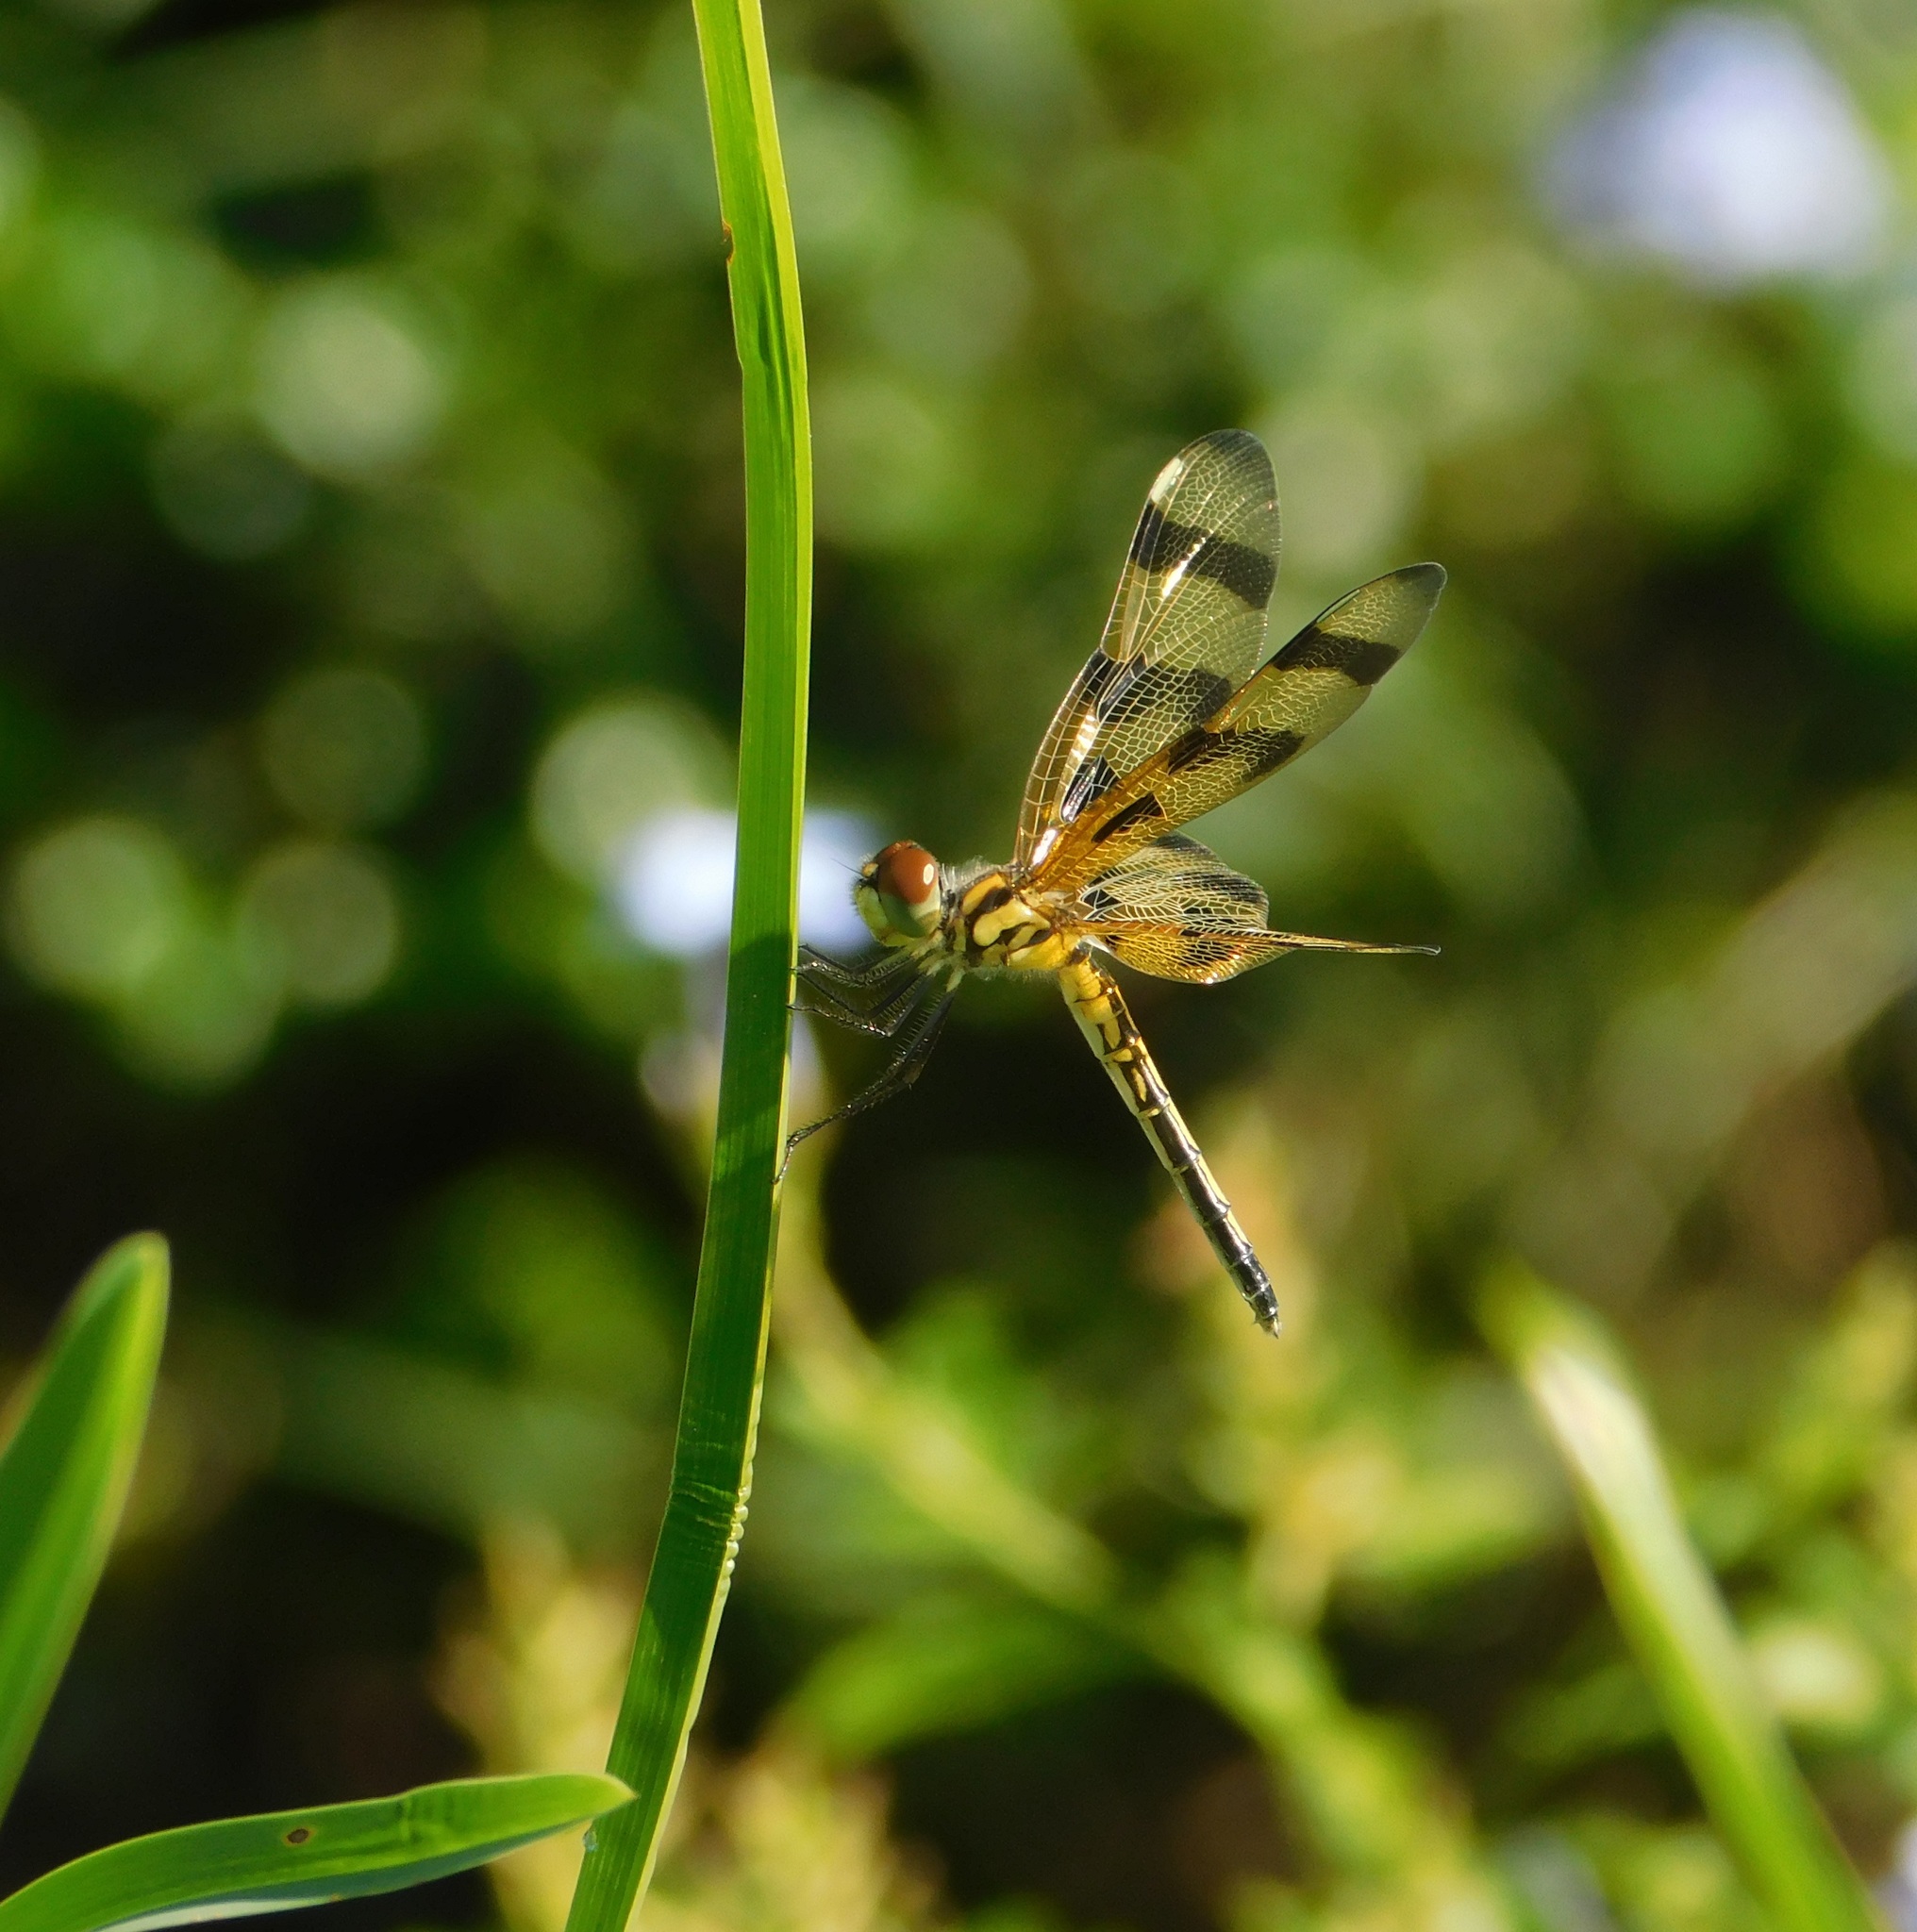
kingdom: Animalia
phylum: Arthropoda
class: Insecta
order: Odonata
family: Libellulidae
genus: Celithemis
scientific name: Celithemis eponina
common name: Halloween pennant
